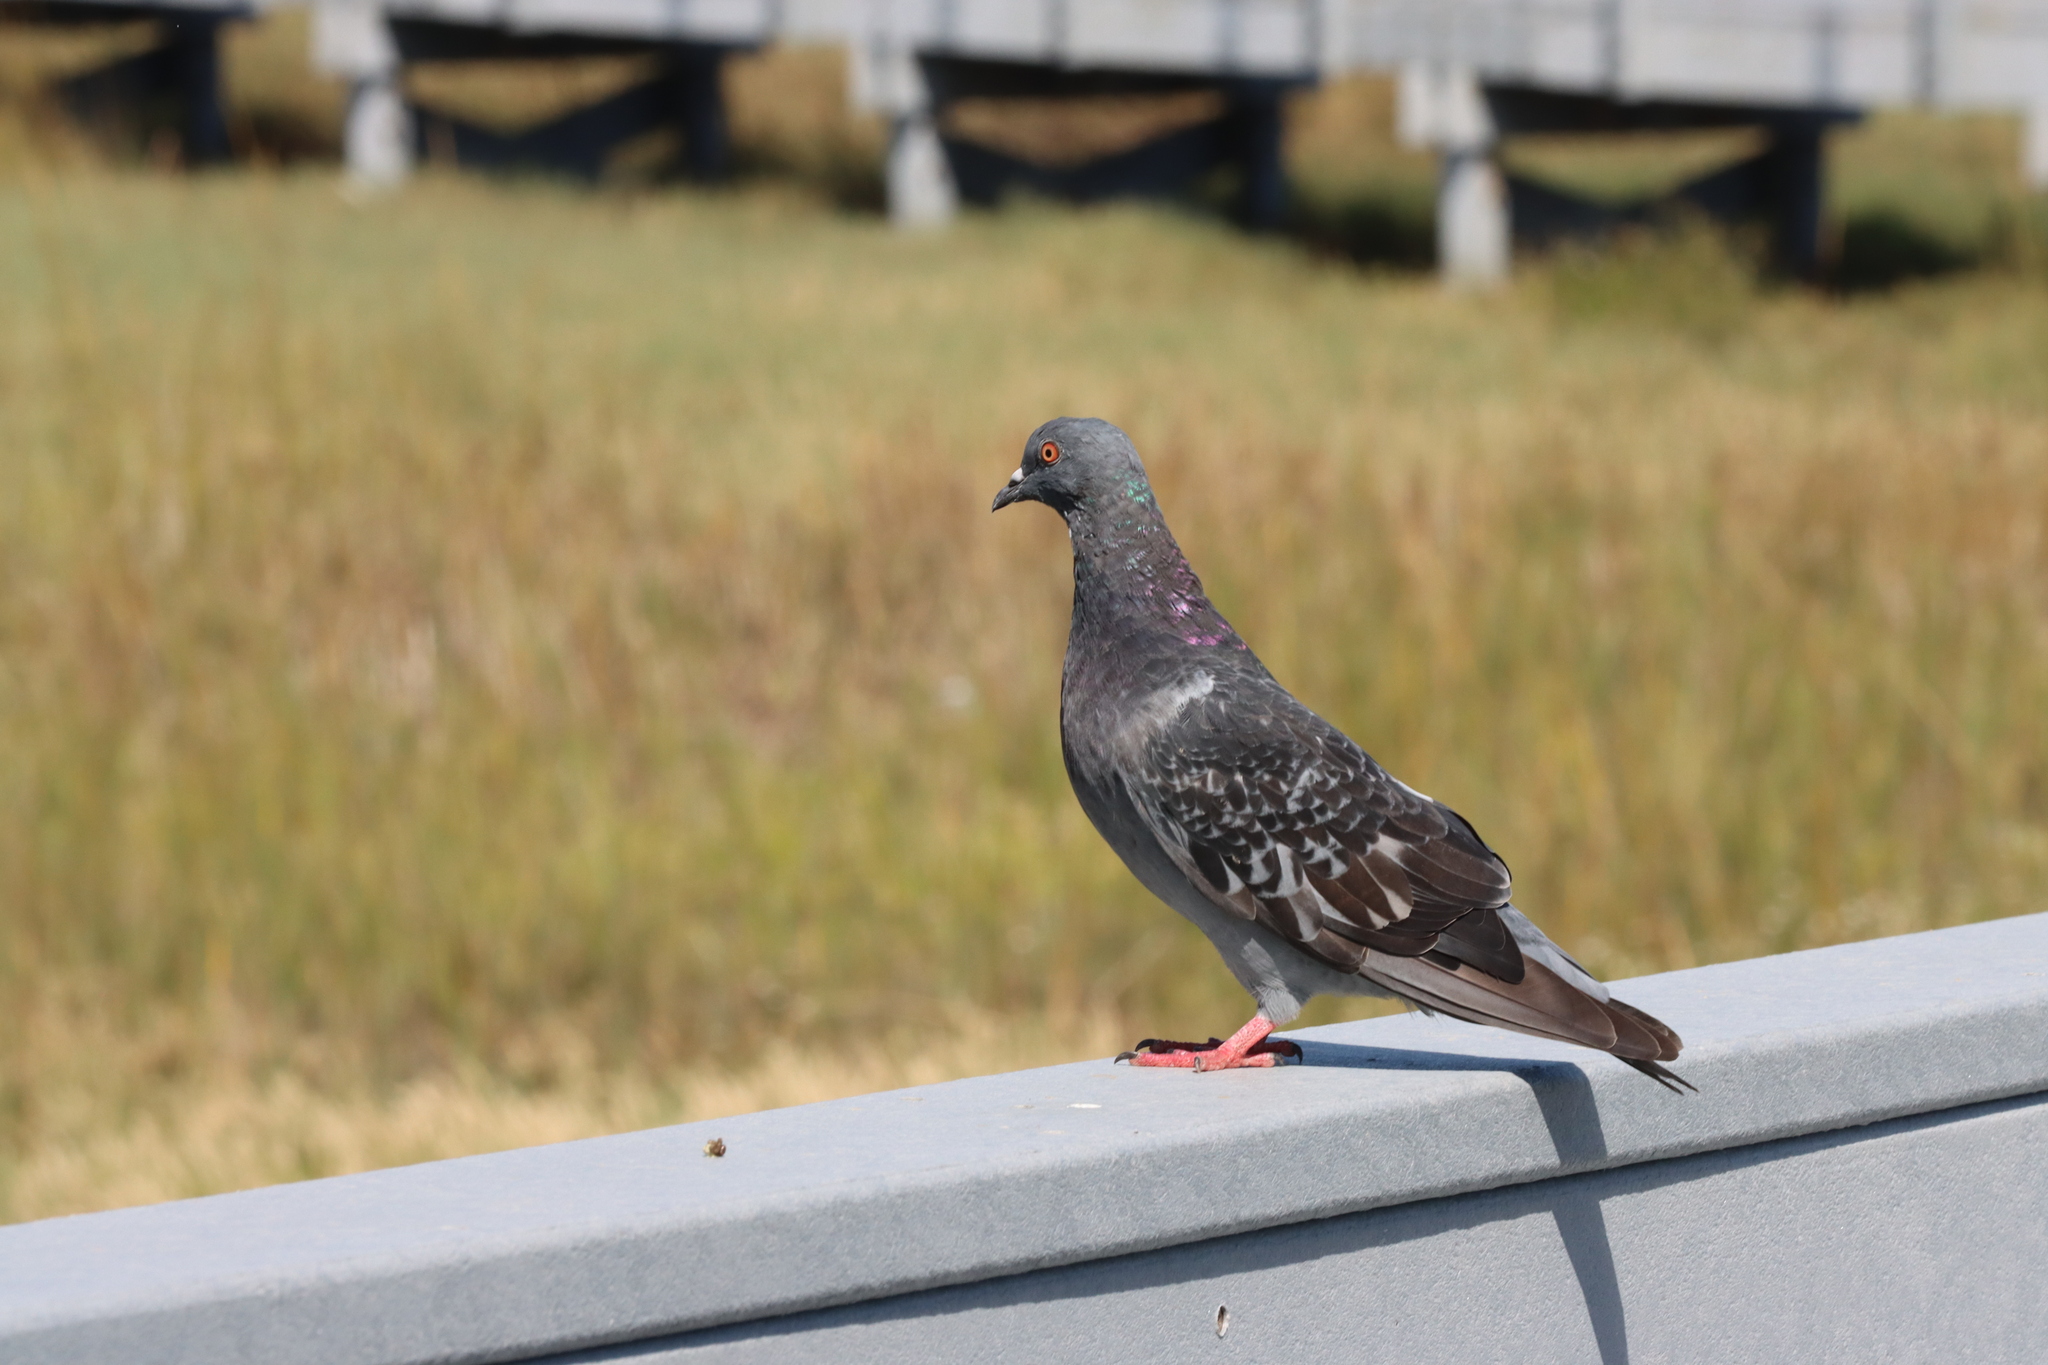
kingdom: Animalia
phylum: Chordata
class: Aves
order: Columbiformes
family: Columbidae
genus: Columba
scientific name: Columba livia
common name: Rock pigeon
